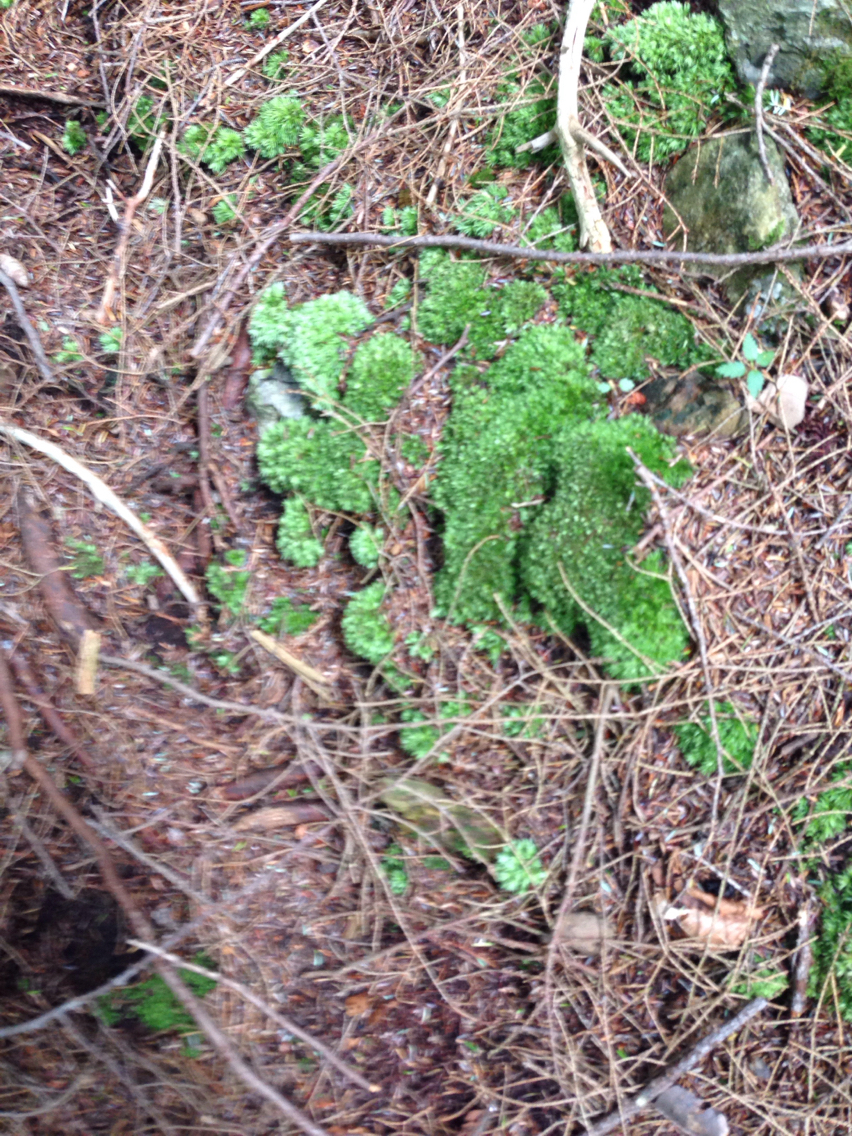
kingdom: Plantae
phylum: Bryophyta
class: Bryopsida
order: Dicranales
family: Leucobryaceae
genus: Leucobryum
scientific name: Leucobryum glaucum
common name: Large white-moss
